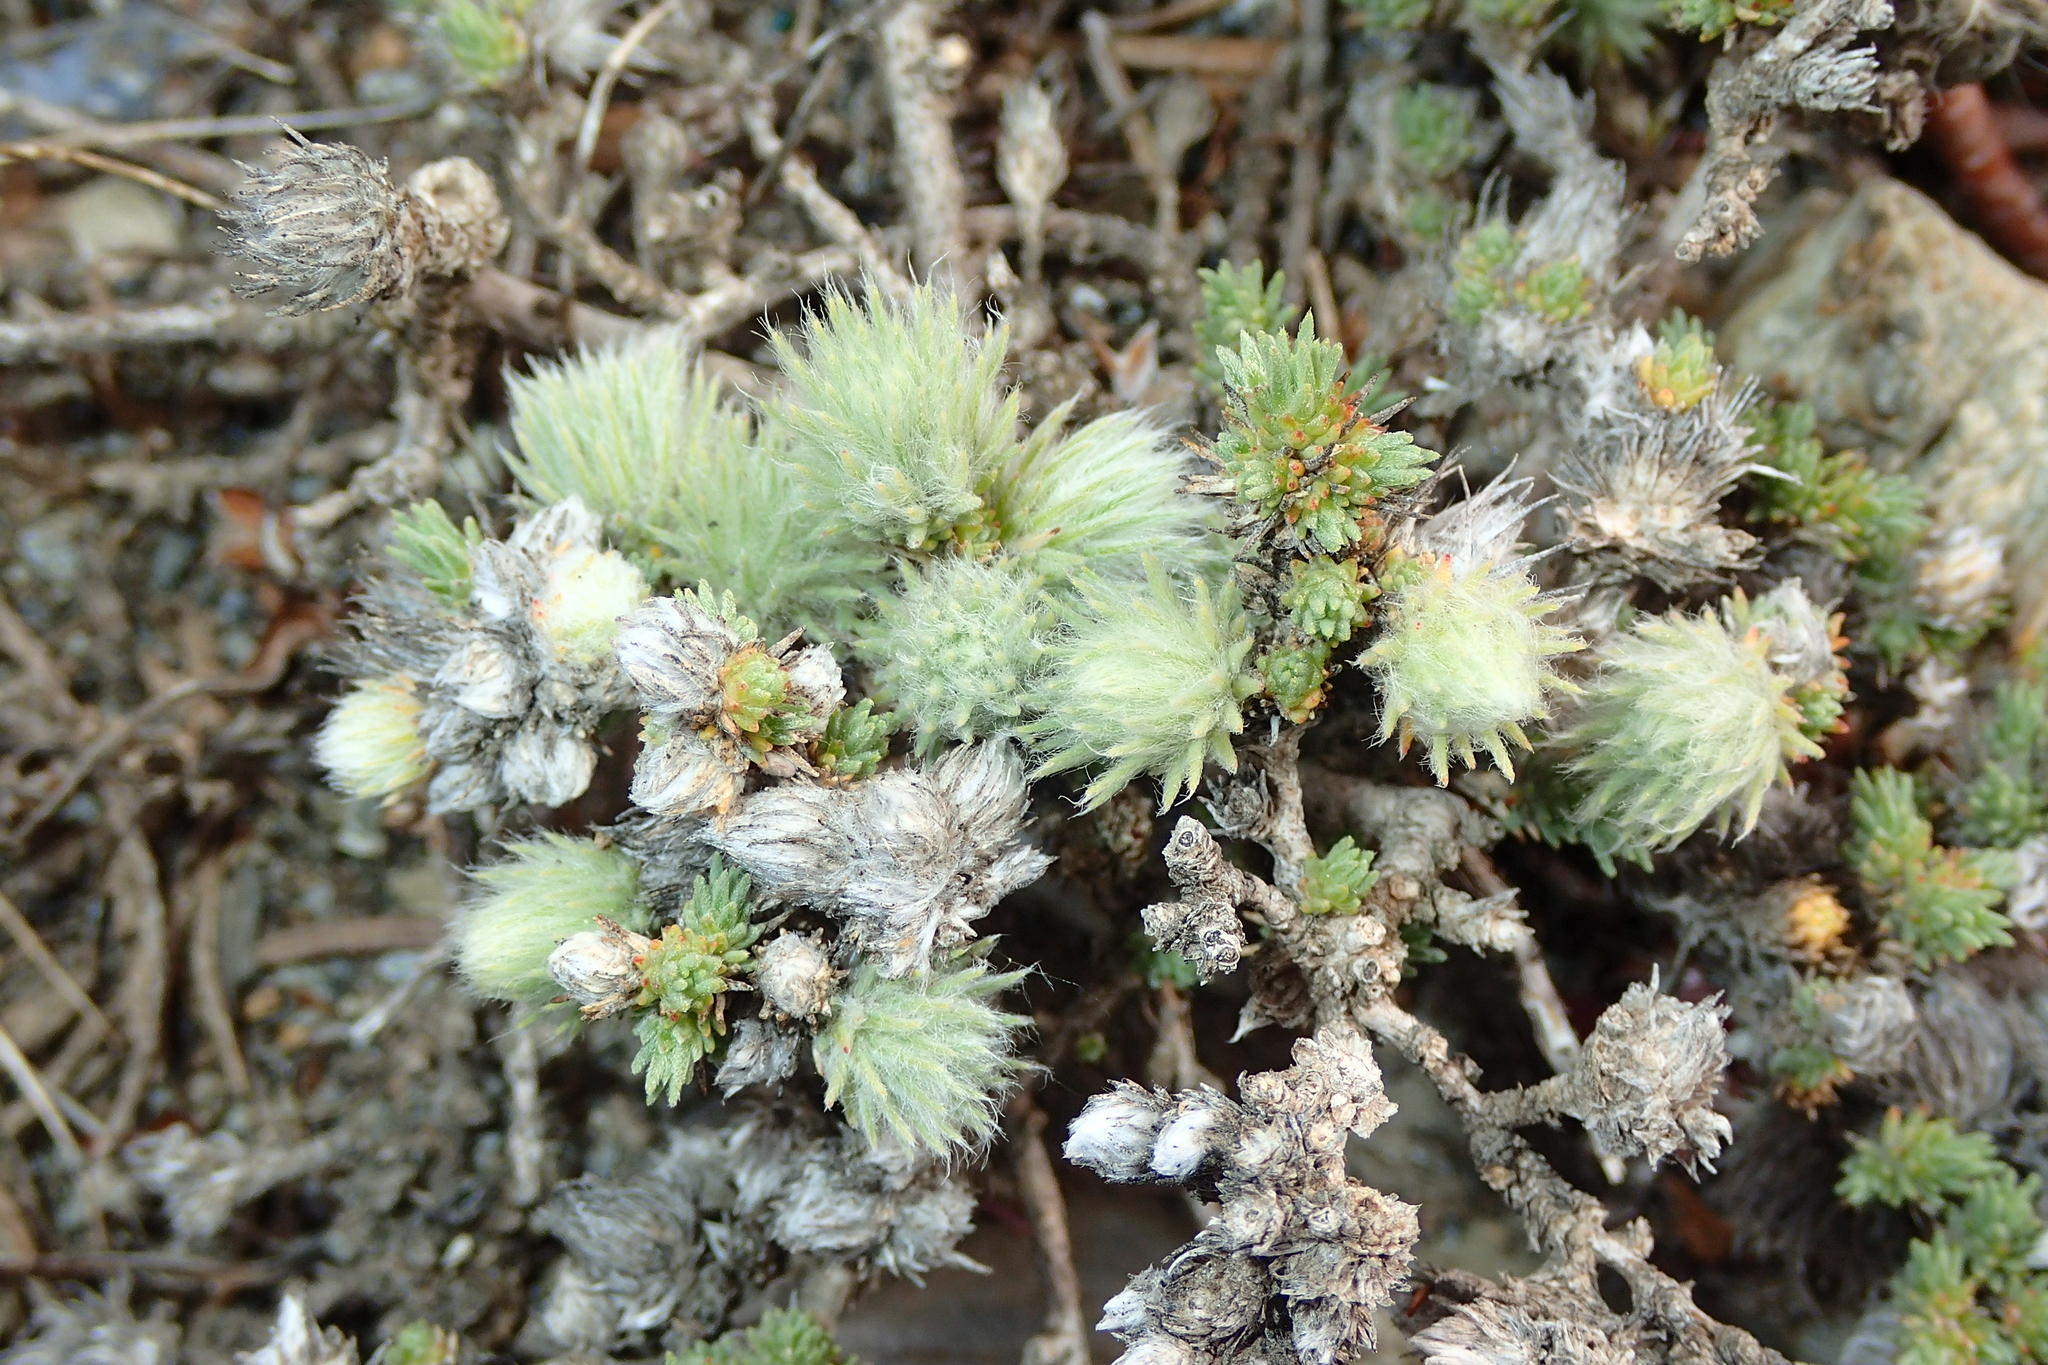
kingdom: Plantae
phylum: Tracheophyta
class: Magnoliopsida
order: Caryophyllales
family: Amaranthaceae
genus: Camphorosma
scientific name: Camphorosma monspeliaca
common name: Camphorfume
